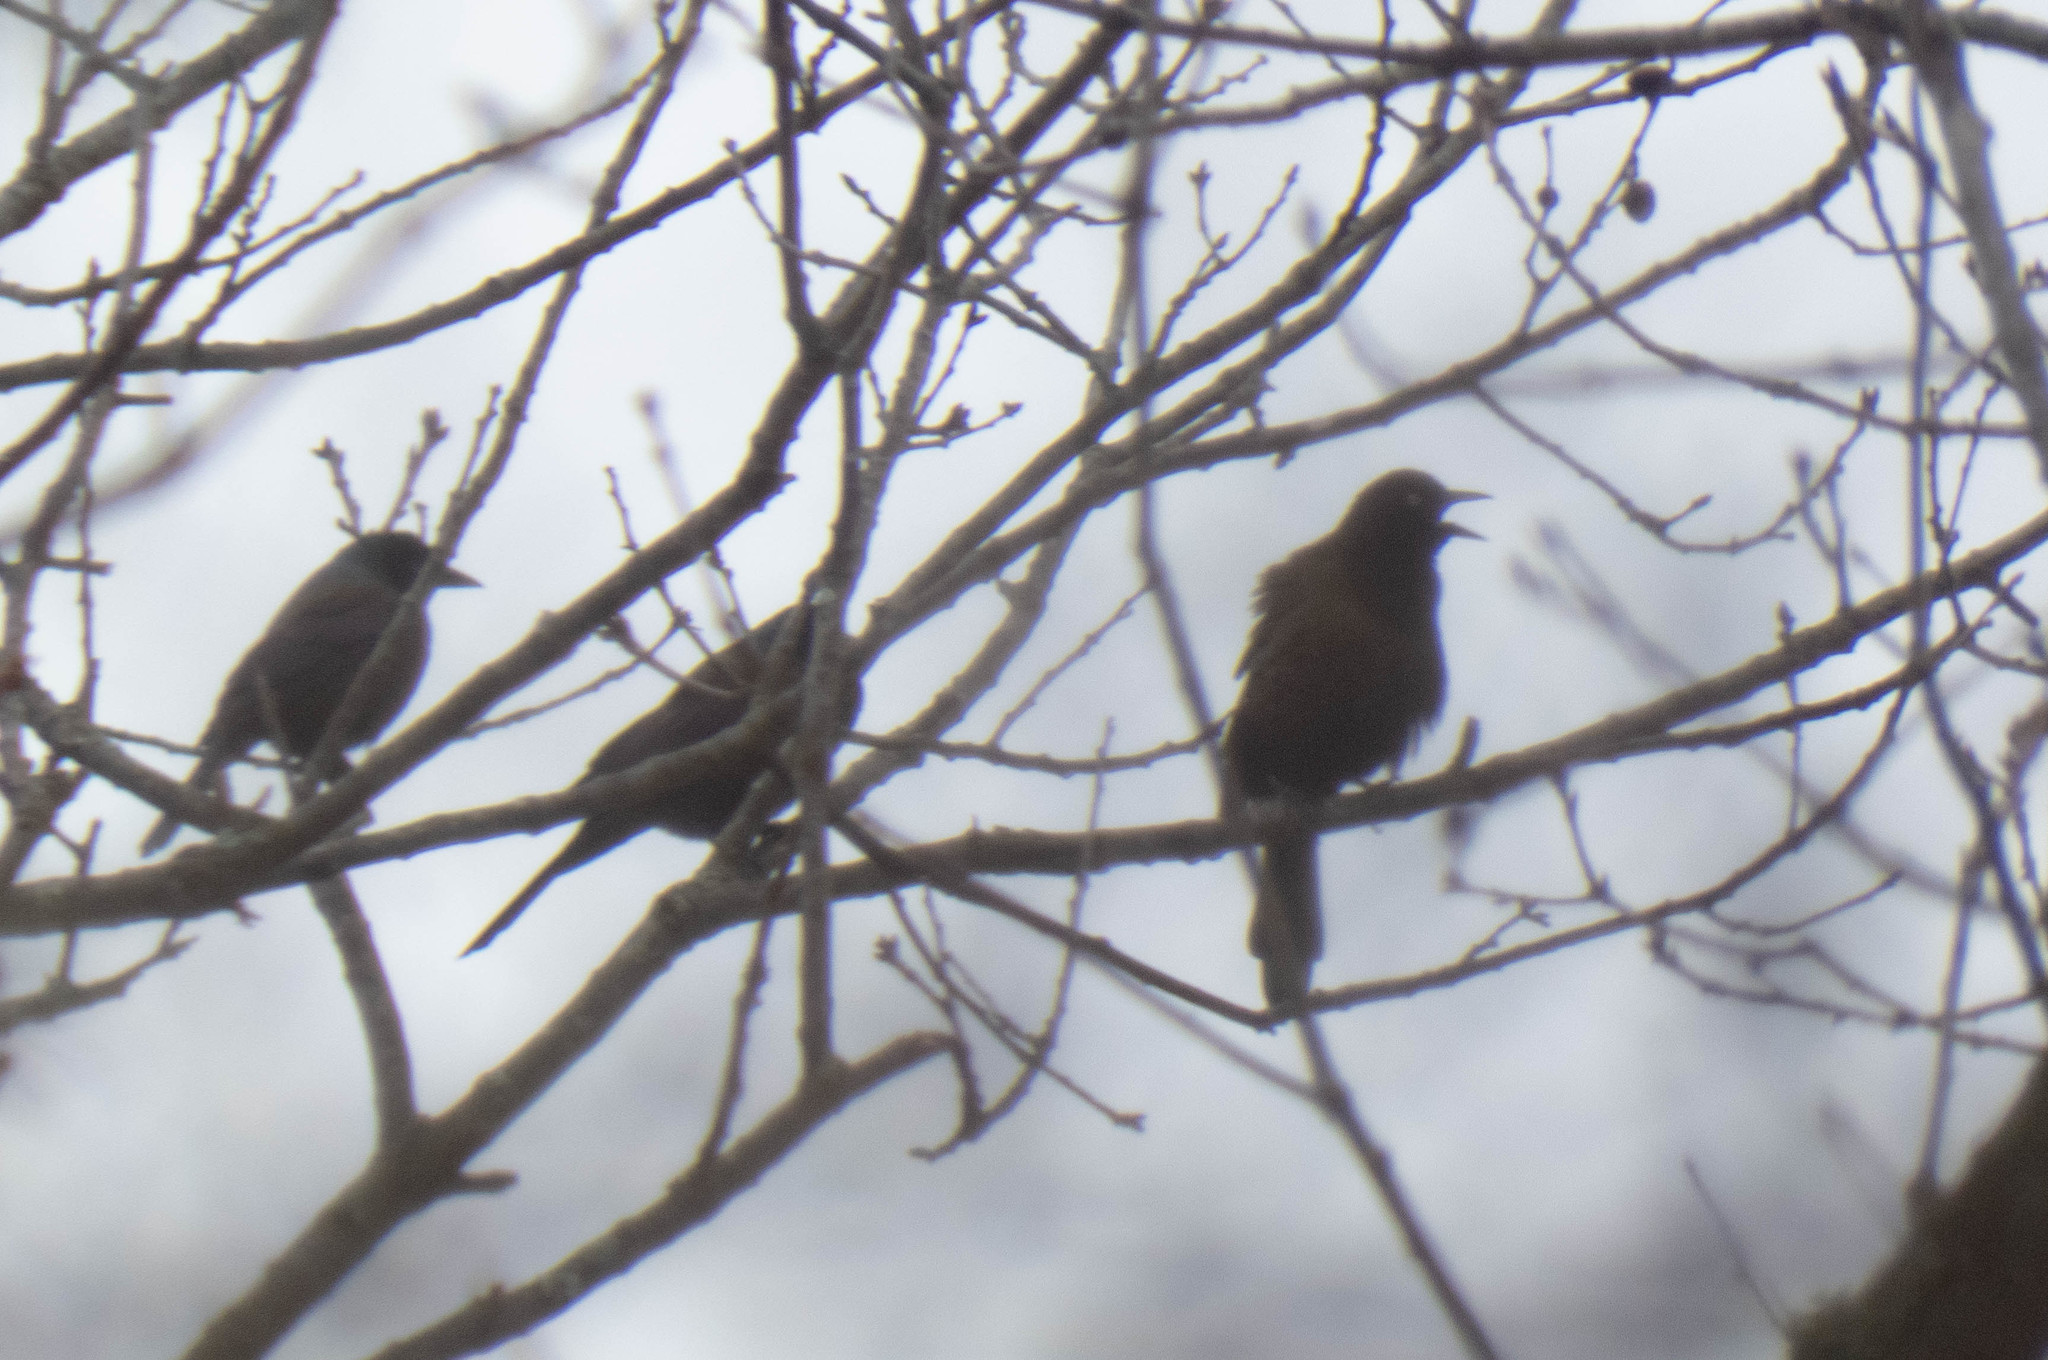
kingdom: Animalia
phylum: Chordata
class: Aves
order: Passeriformes
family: Icteridae
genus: Quiscalus
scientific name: Quiscalus quiscula
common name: Common grackle
